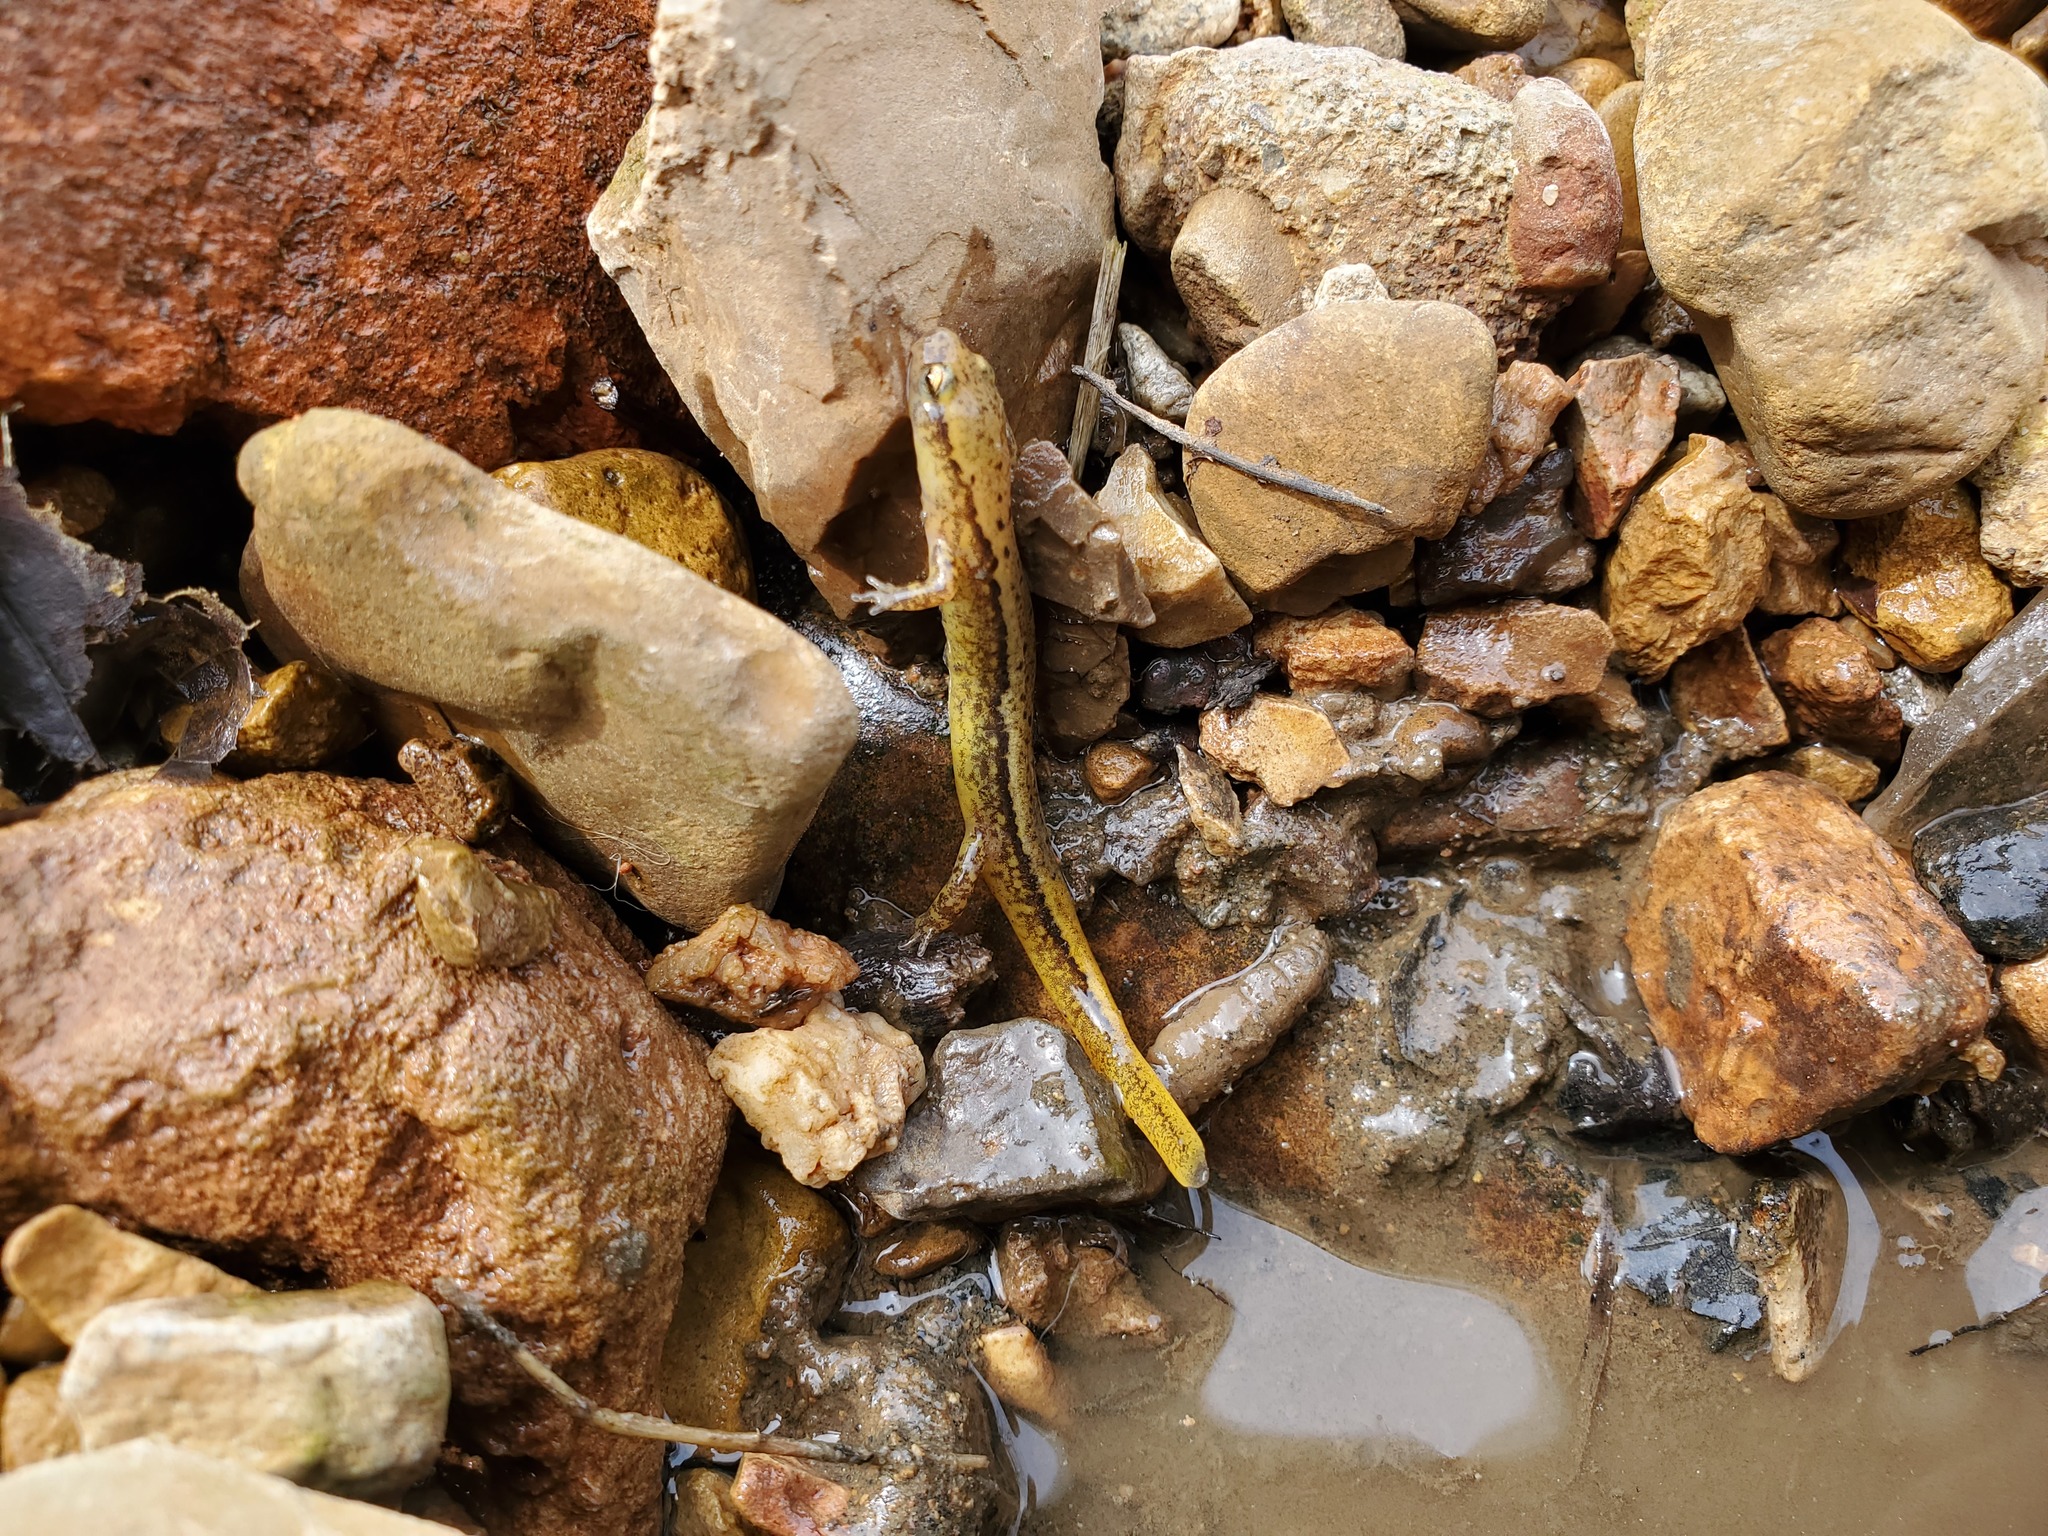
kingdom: Animalia
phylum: Chordata
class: Amphibia
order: Caudata
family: Plethodontidae
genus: Eurycea
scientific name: Eurycea cirrigera
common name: Southern two-lined salamander
